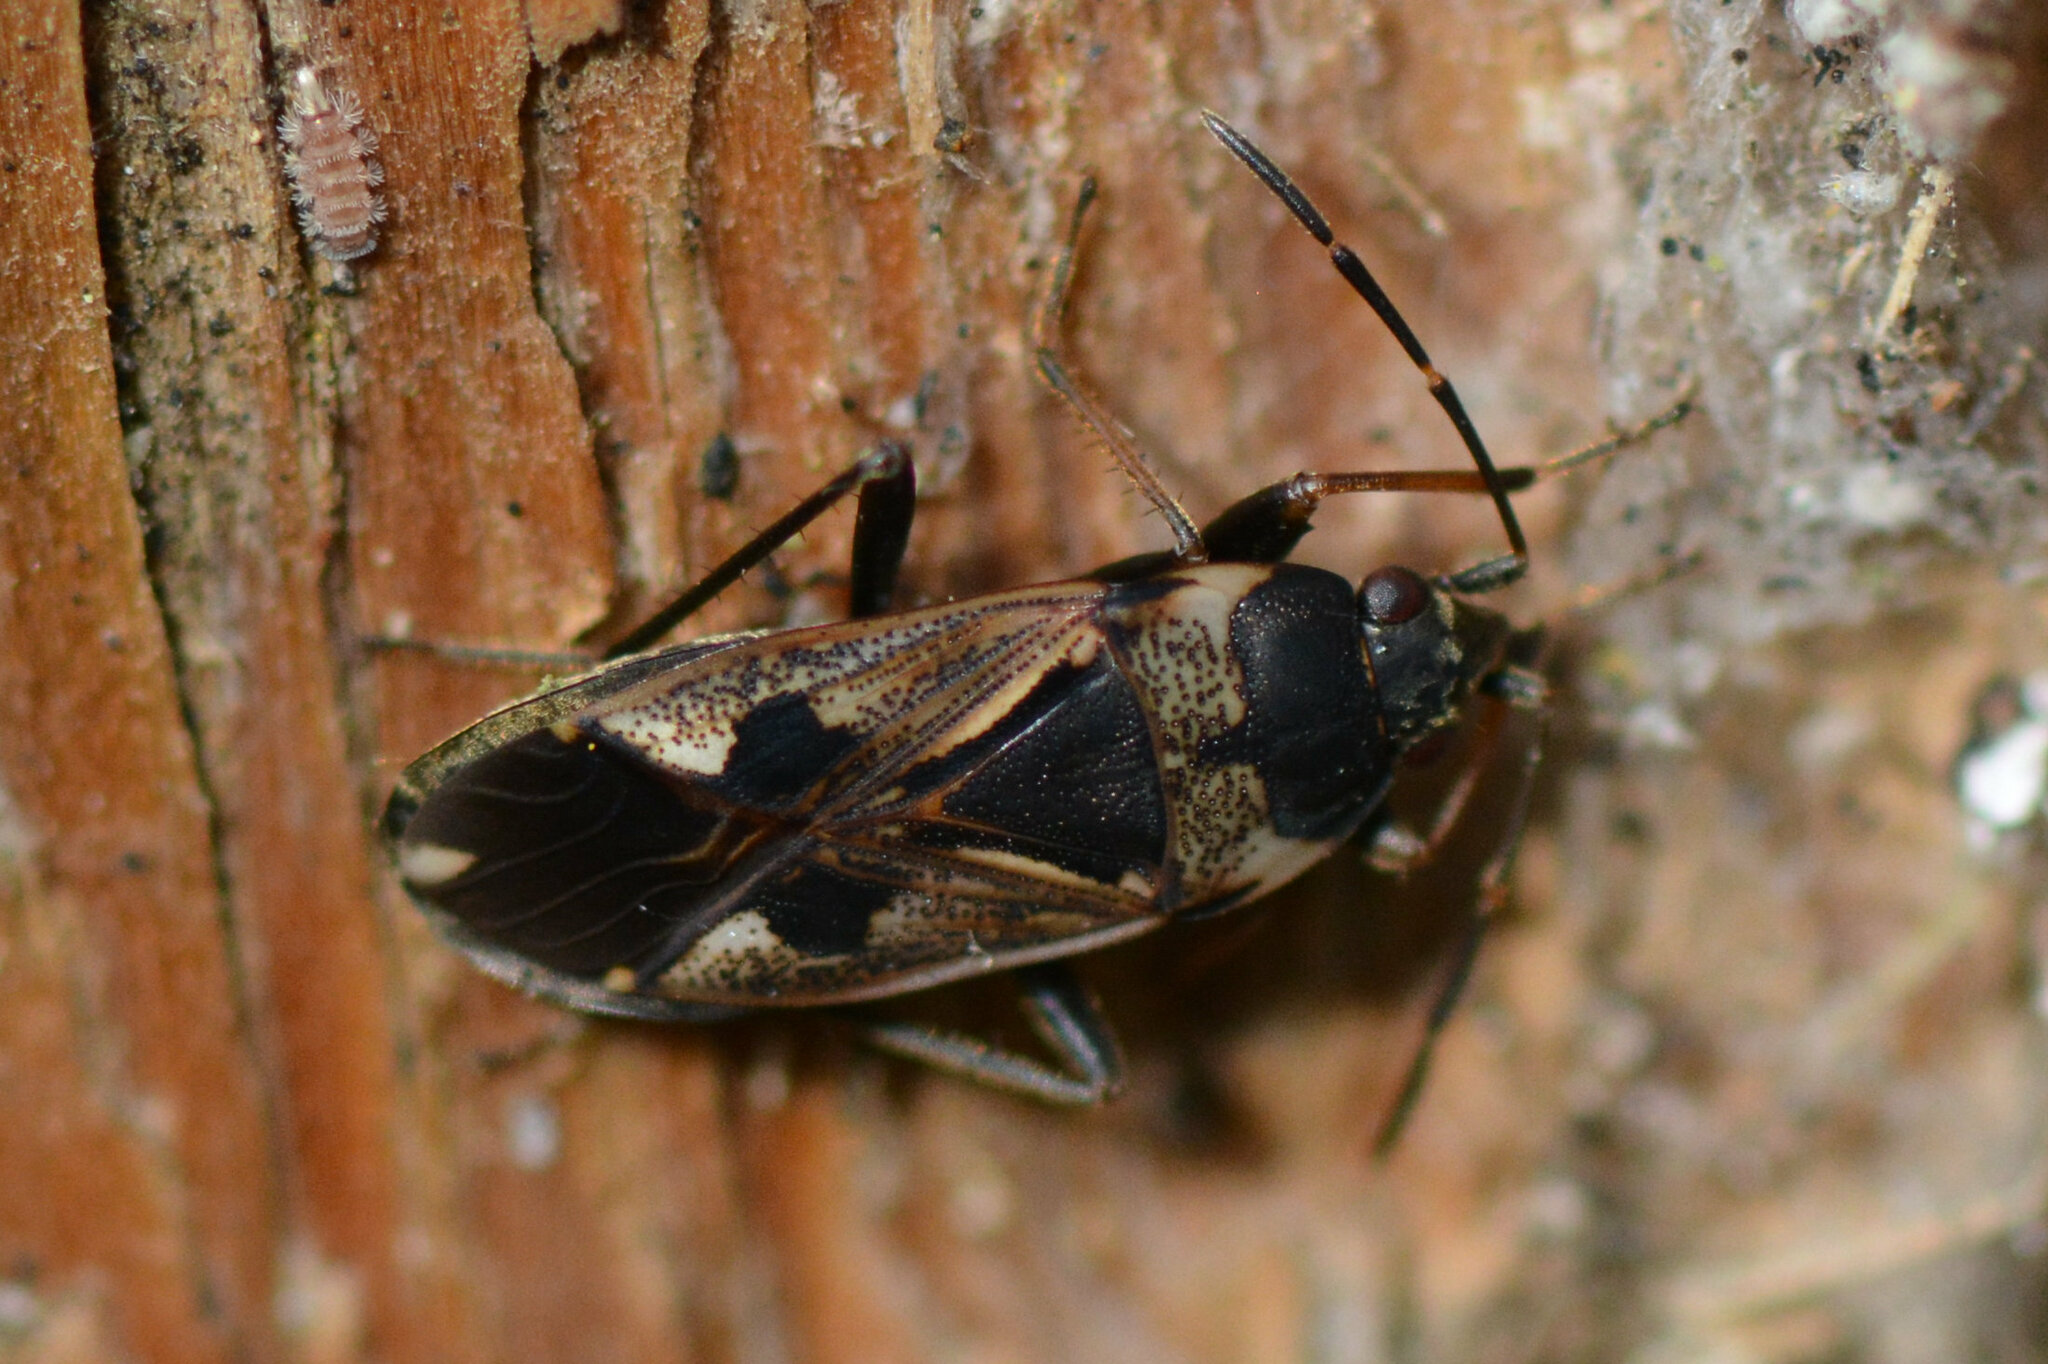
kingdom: Animalia
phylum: Arthropoda
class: Insecta
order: Hemiptera
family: Rhyparochromidae
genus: Rhyparochromus
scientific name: Rhyparochromus vulgaris
